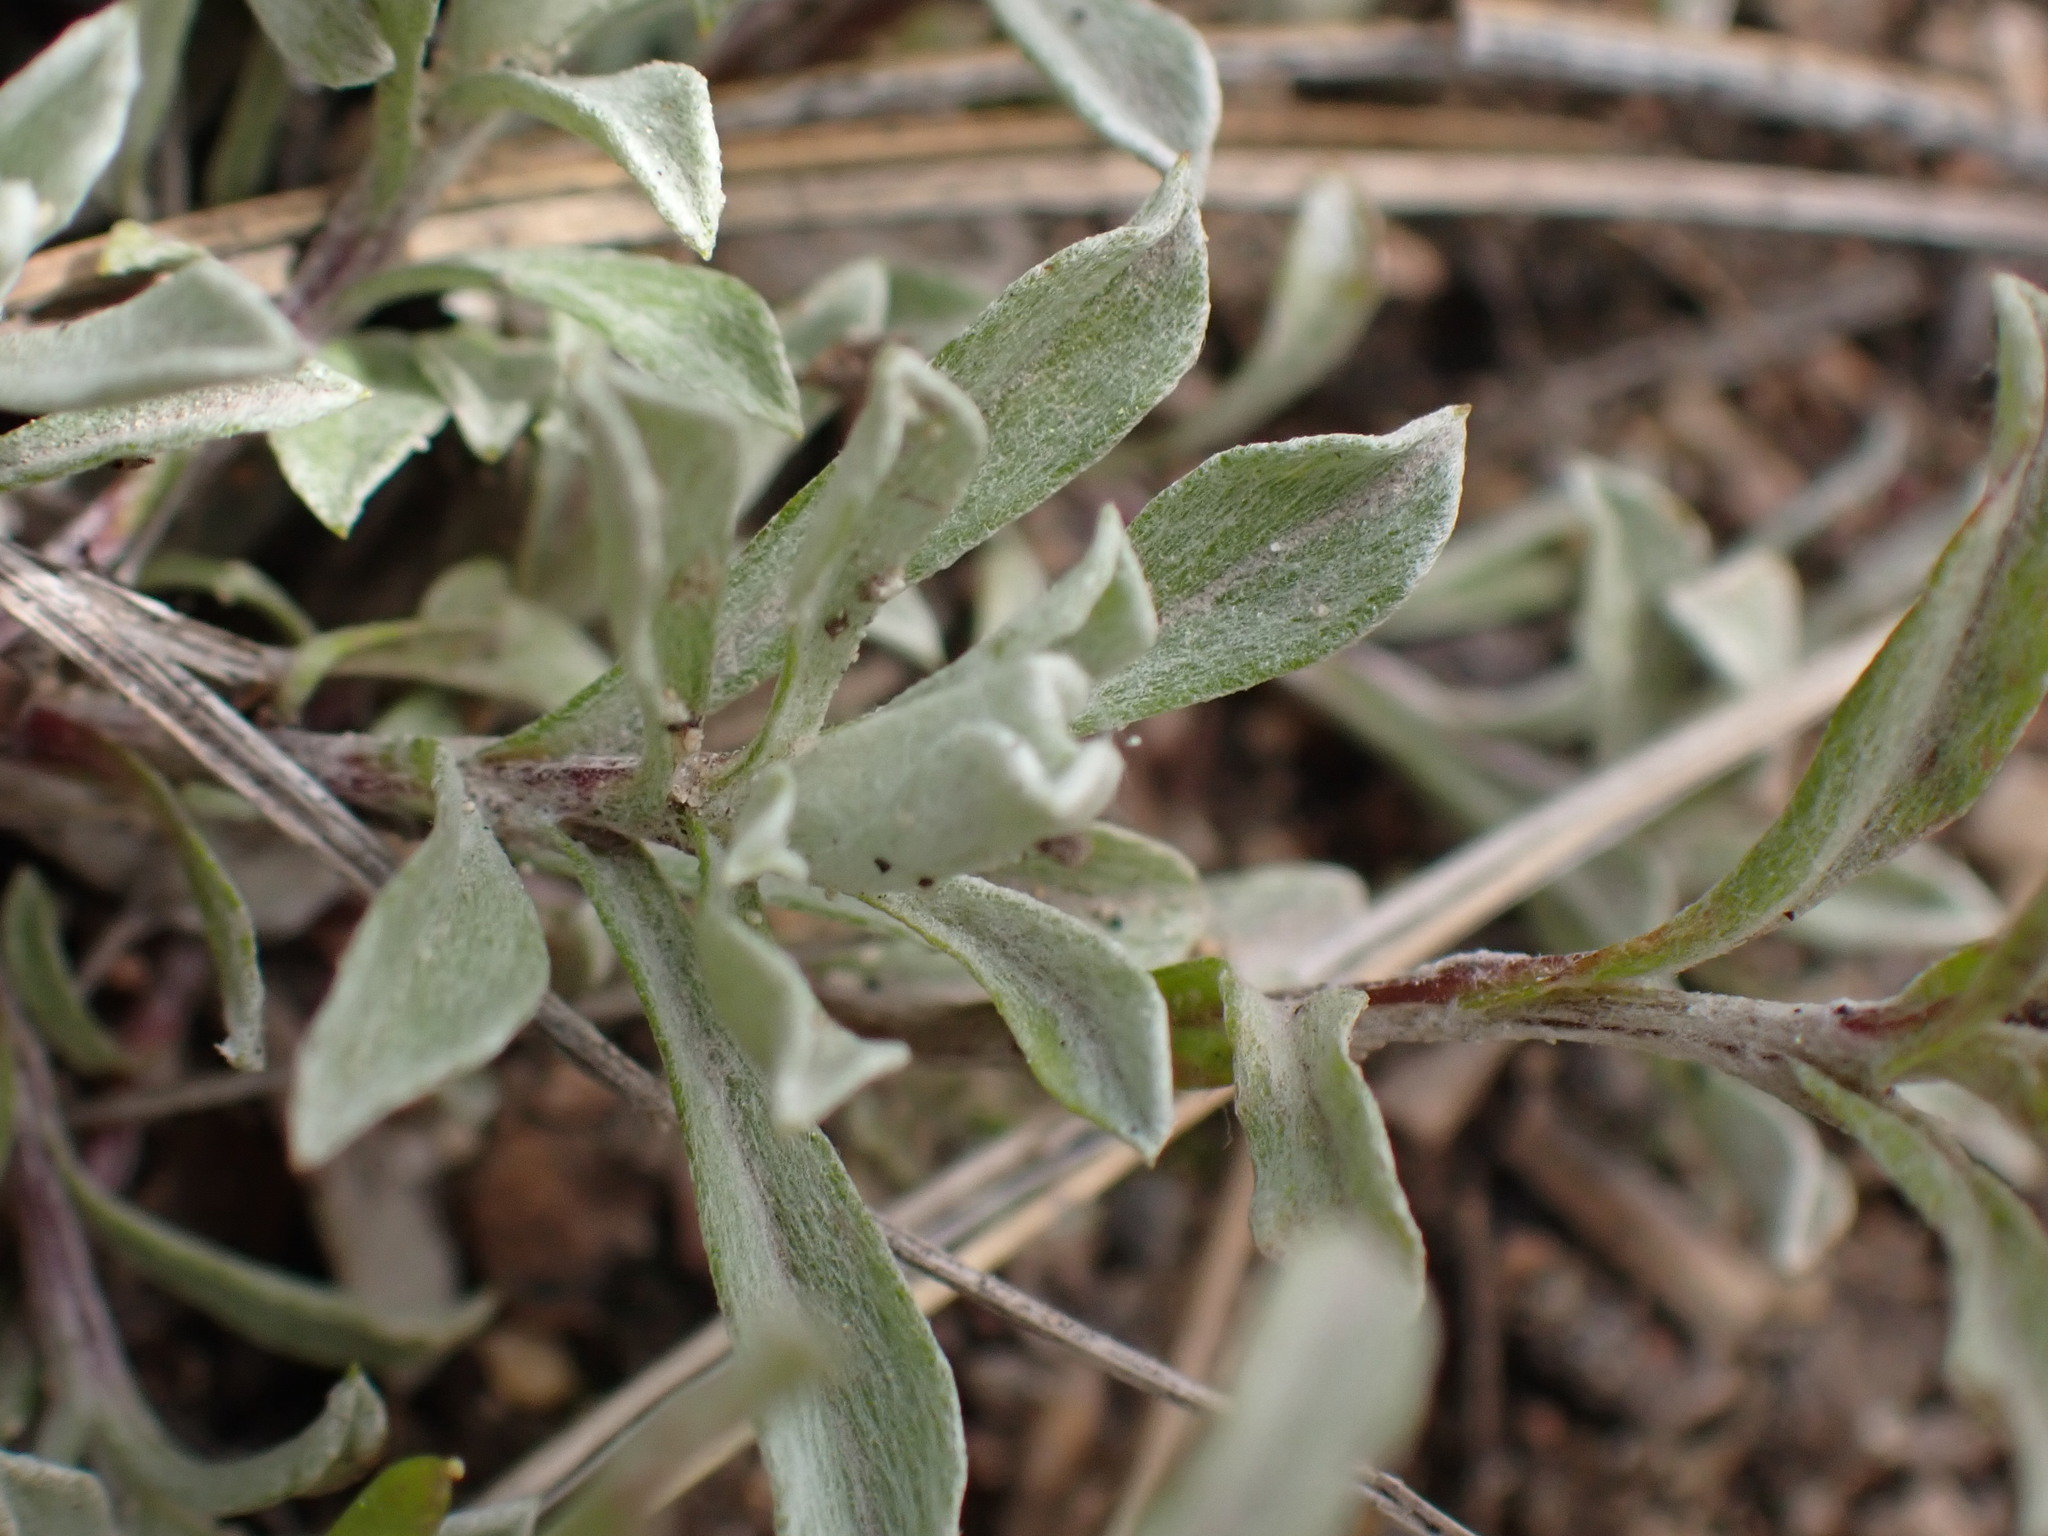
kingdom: Plantae
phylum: Tracheophyta
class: Magnoliopsida
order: Asterales
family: Asteraceae
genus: Antennaria
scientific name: Antennaria umbrinella
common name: Brown pussytoes
